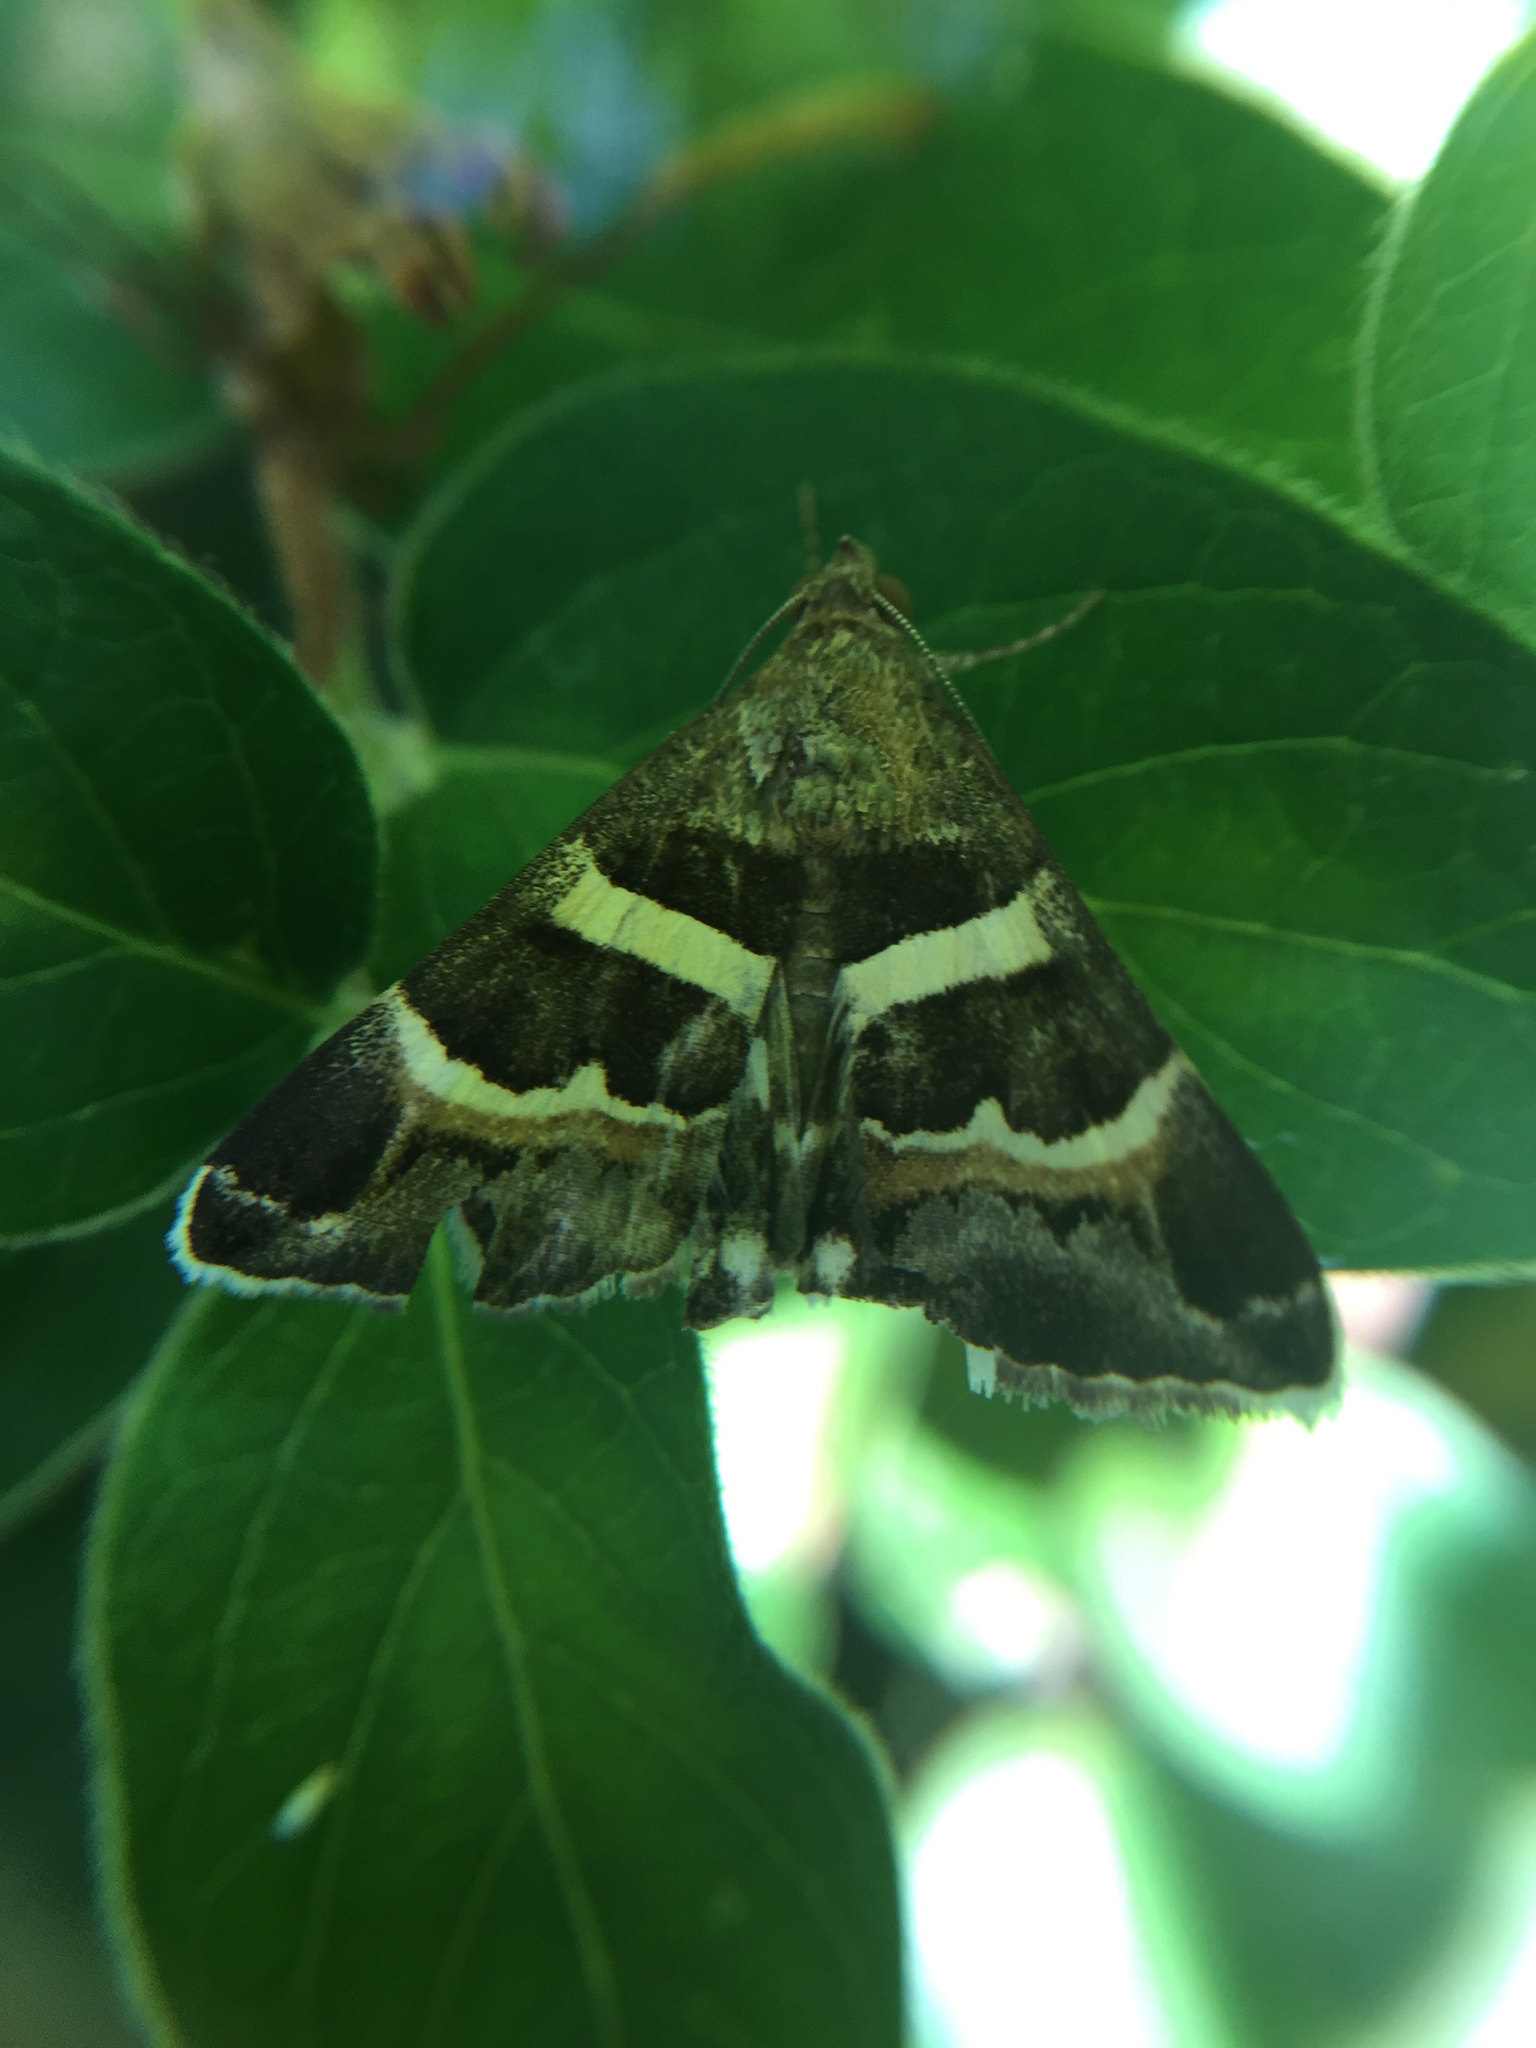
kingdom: Animalia
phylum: Arthropoda
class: Insecta
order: Lepidoptera
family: Erebidae
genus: Grammodes
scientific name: Grammodes stolida
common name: Geometrician
